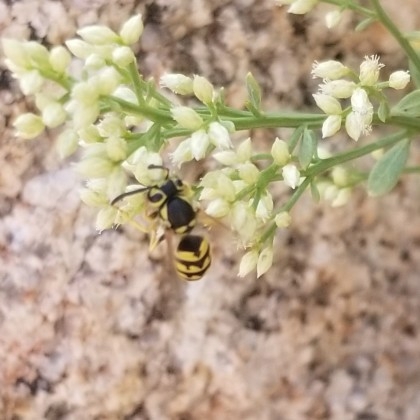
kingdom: Animalia
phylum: Arthropoda
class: Insecta
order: Hymenoptera
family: Vespidae
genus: Vespula
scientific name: Vespula pensylvanica
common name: Western yellowjacket
